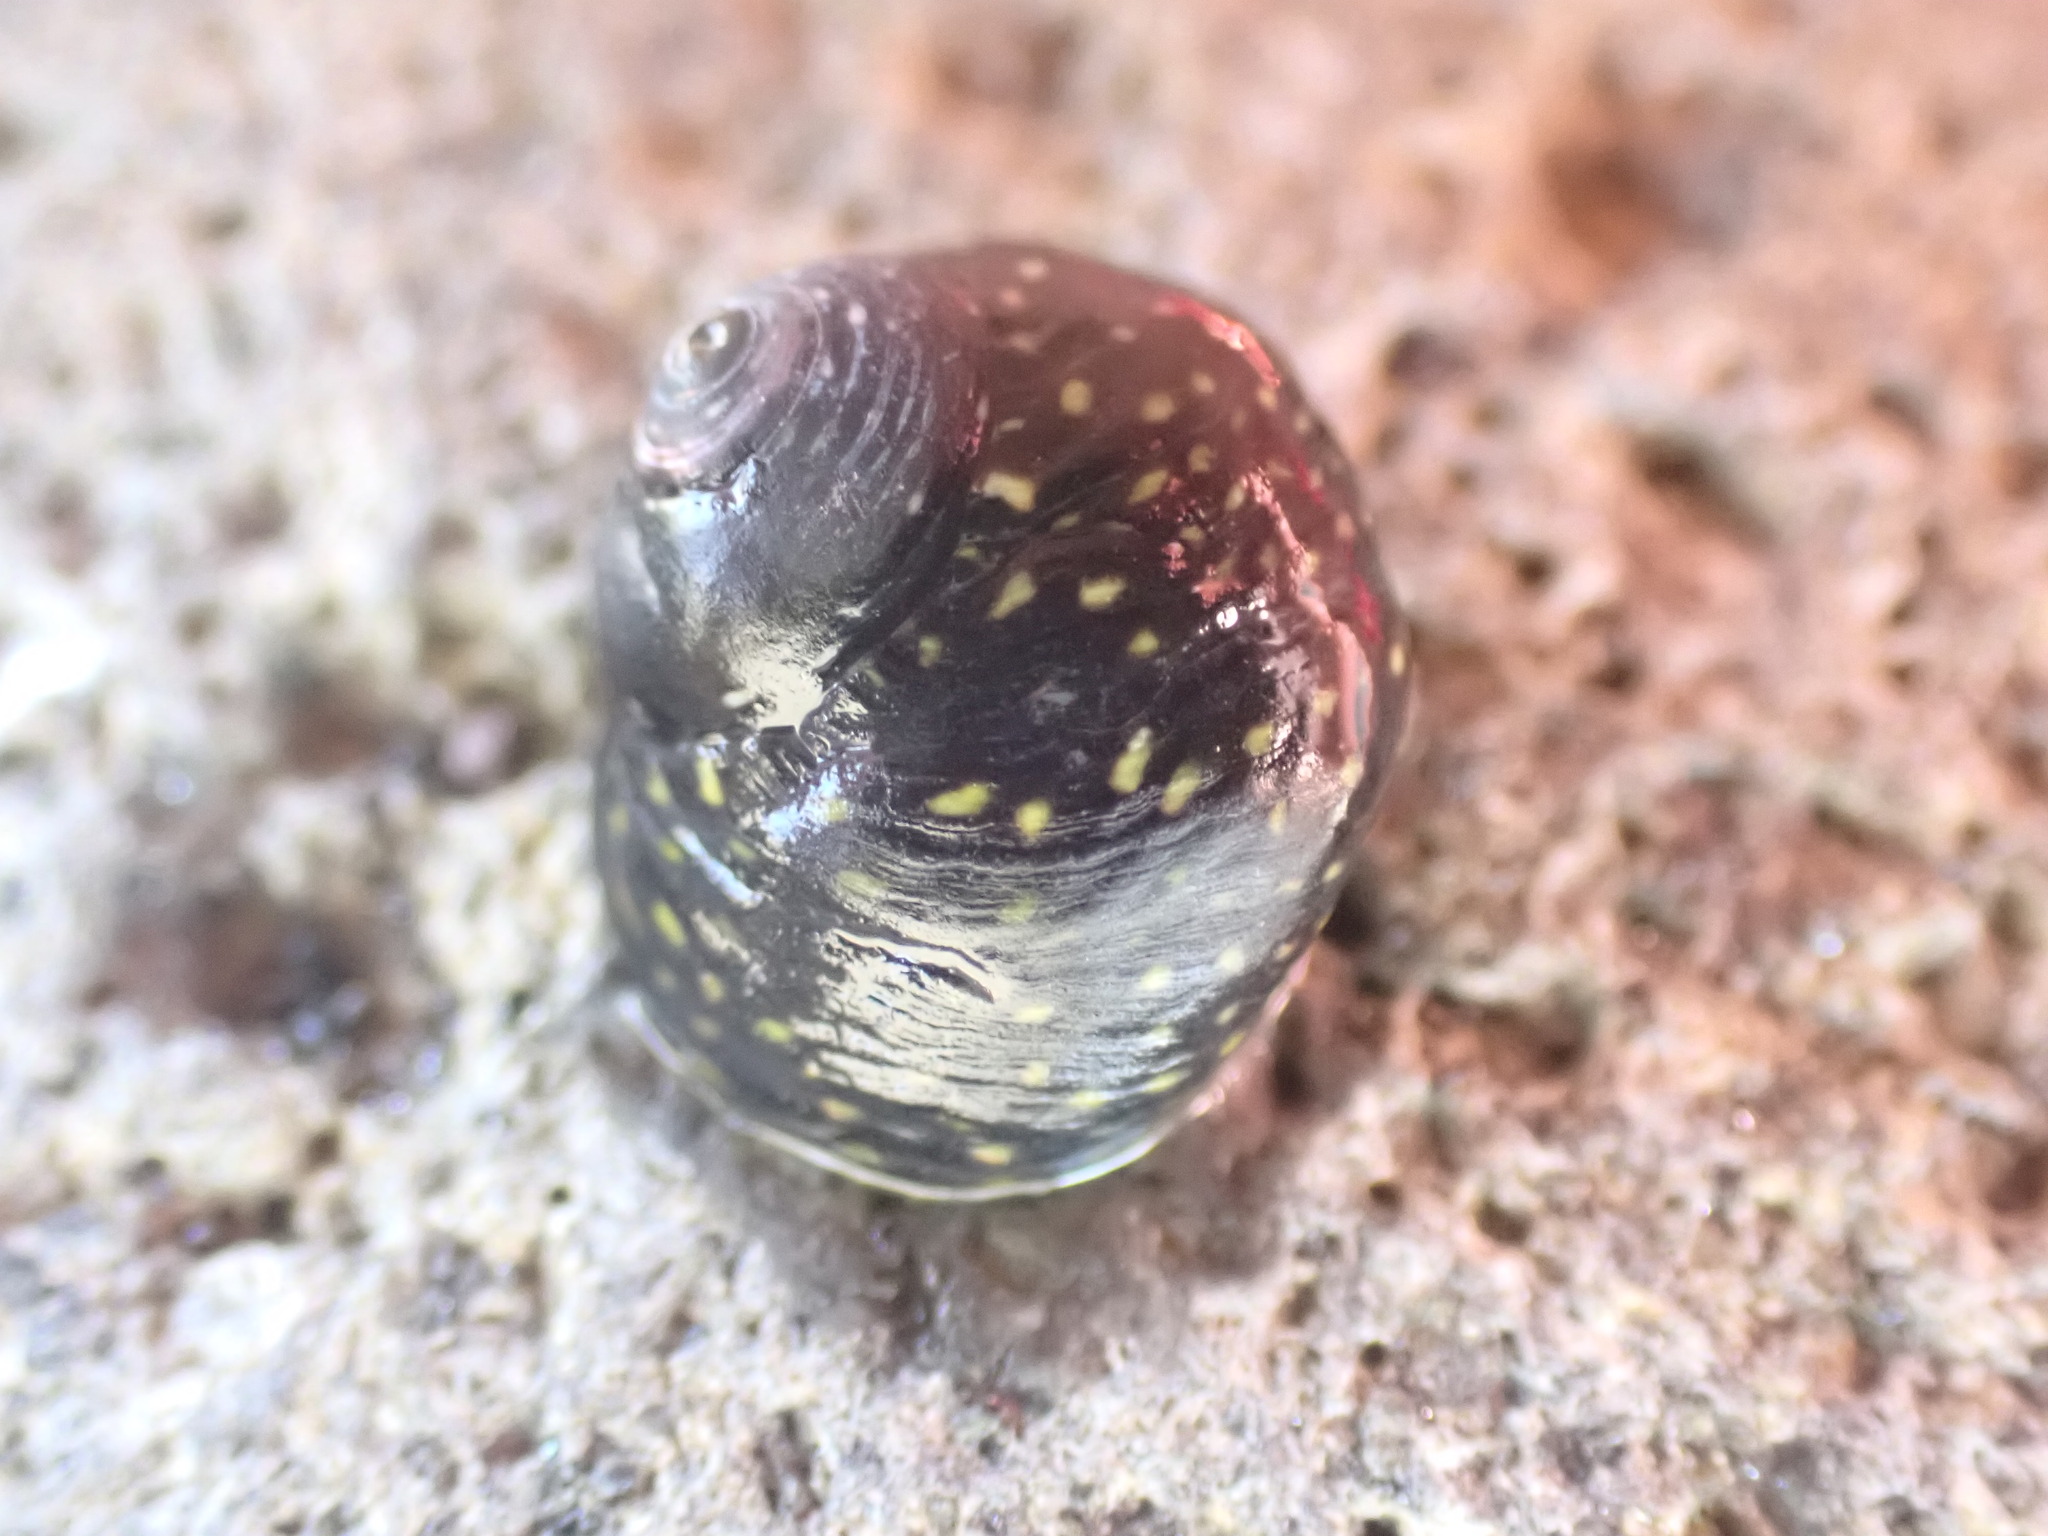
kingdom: Animalia
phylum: Mollusca
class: Gastropoda
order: Trochida
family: Trochidae
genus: Diloma
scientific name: Diloma aridum
